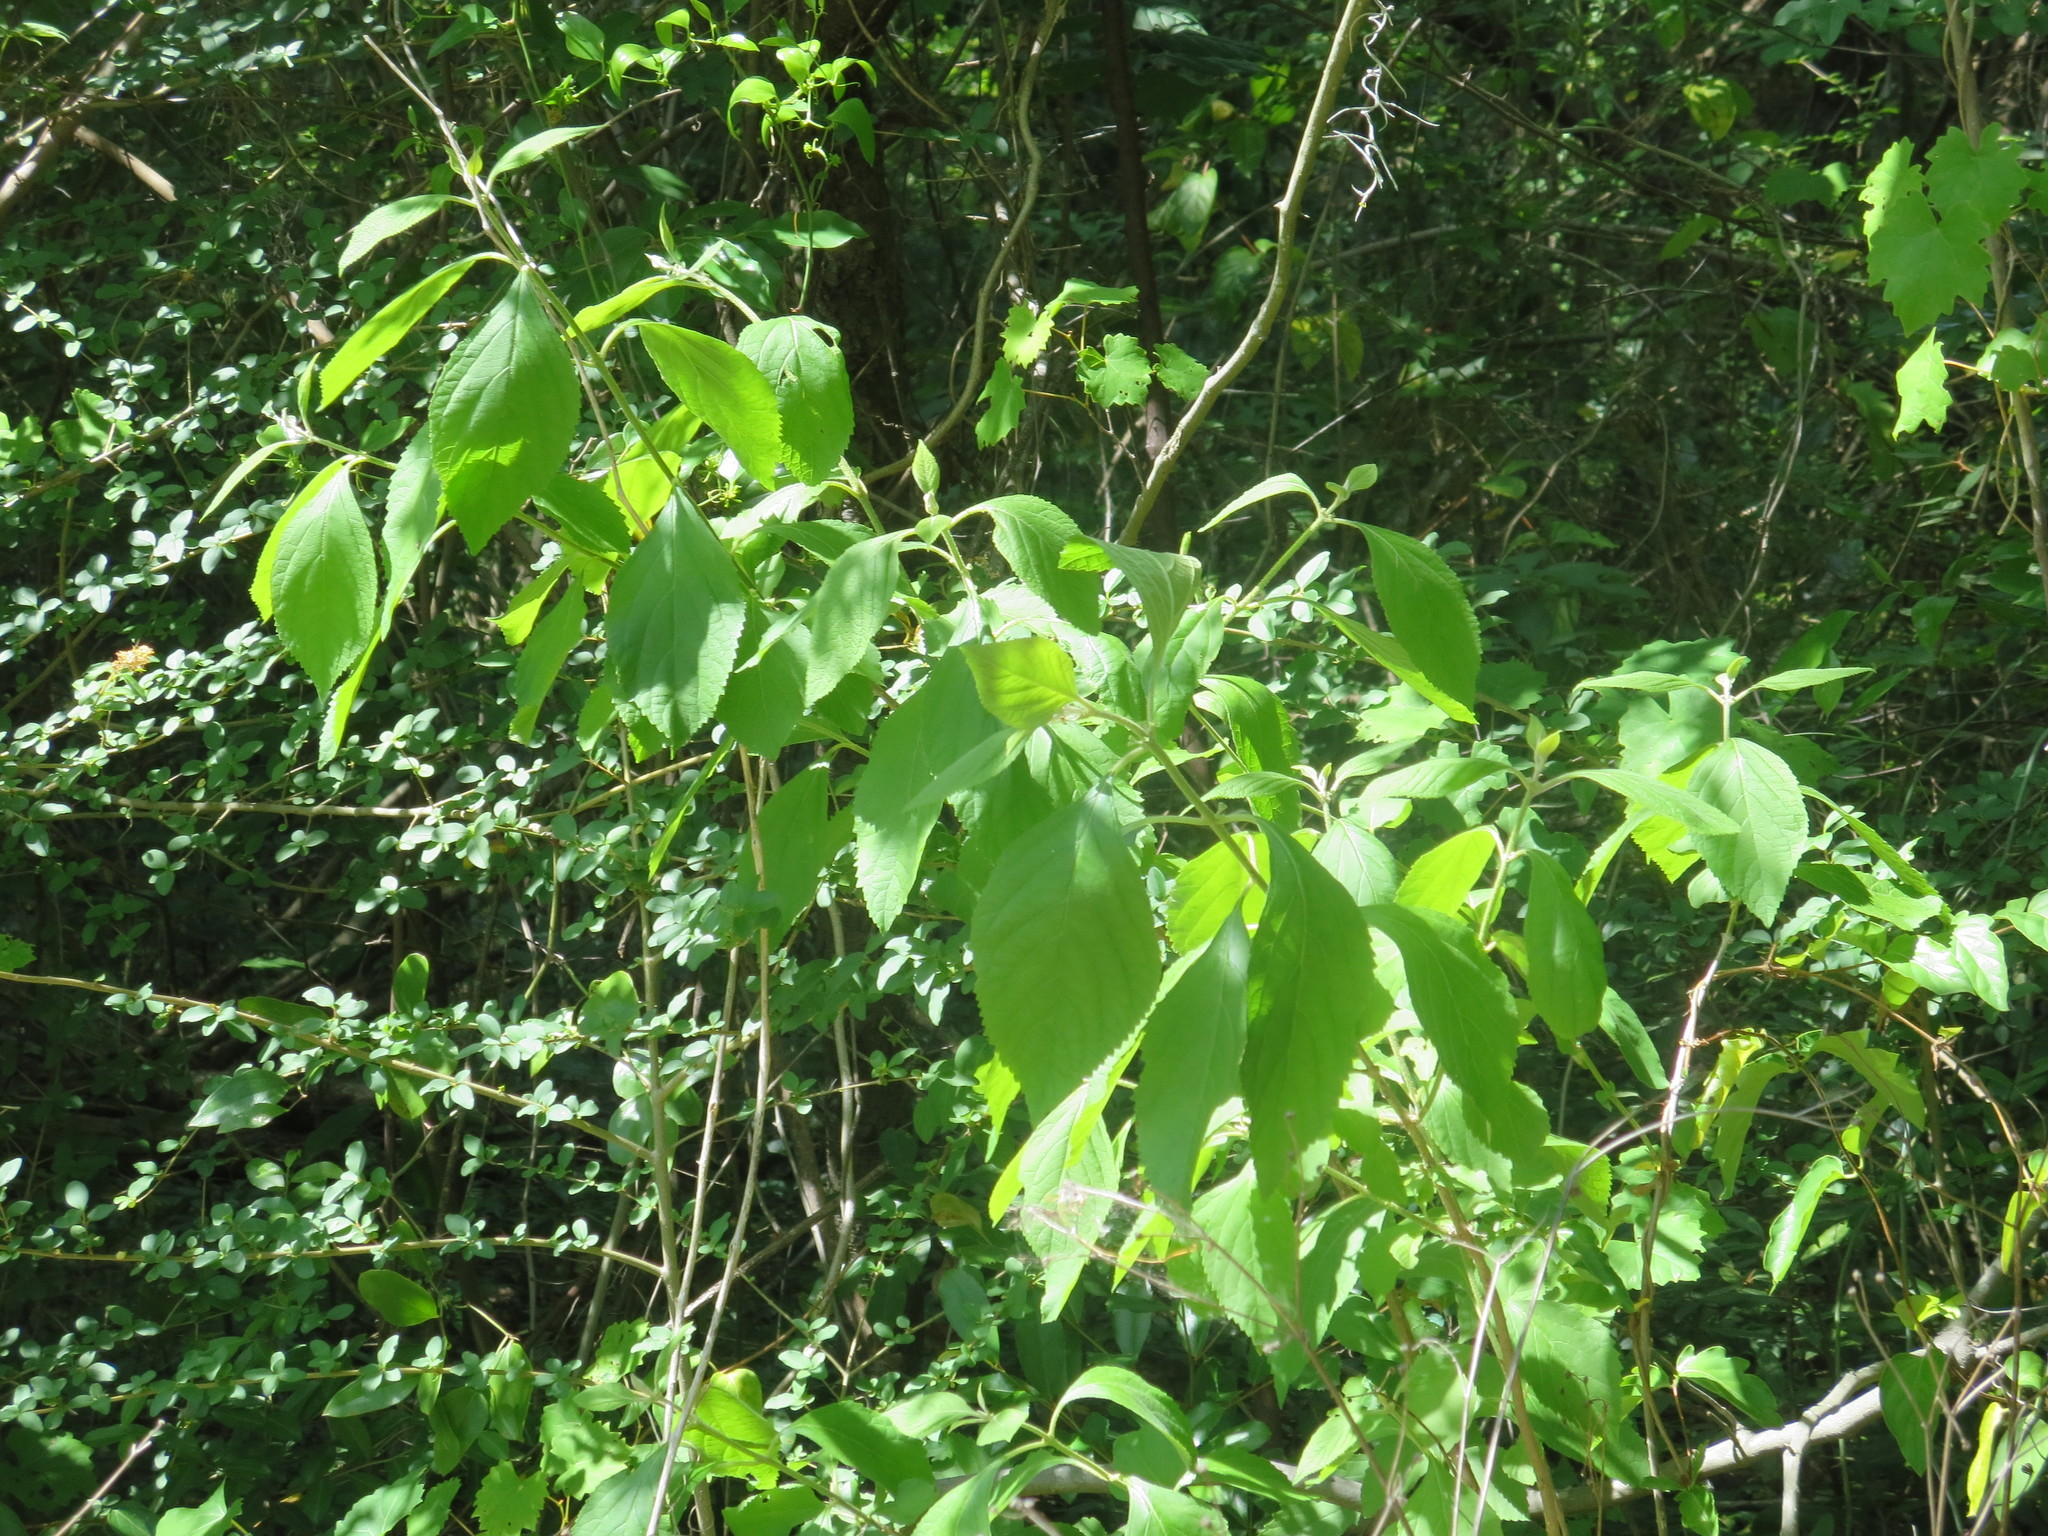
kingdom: Plantae
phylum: Tracheophyta
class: Magnoliopsida
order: Lamiales
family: Lamiaceae
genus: Callicarpa
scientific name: Callicarpa americana
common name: American beautyberry
